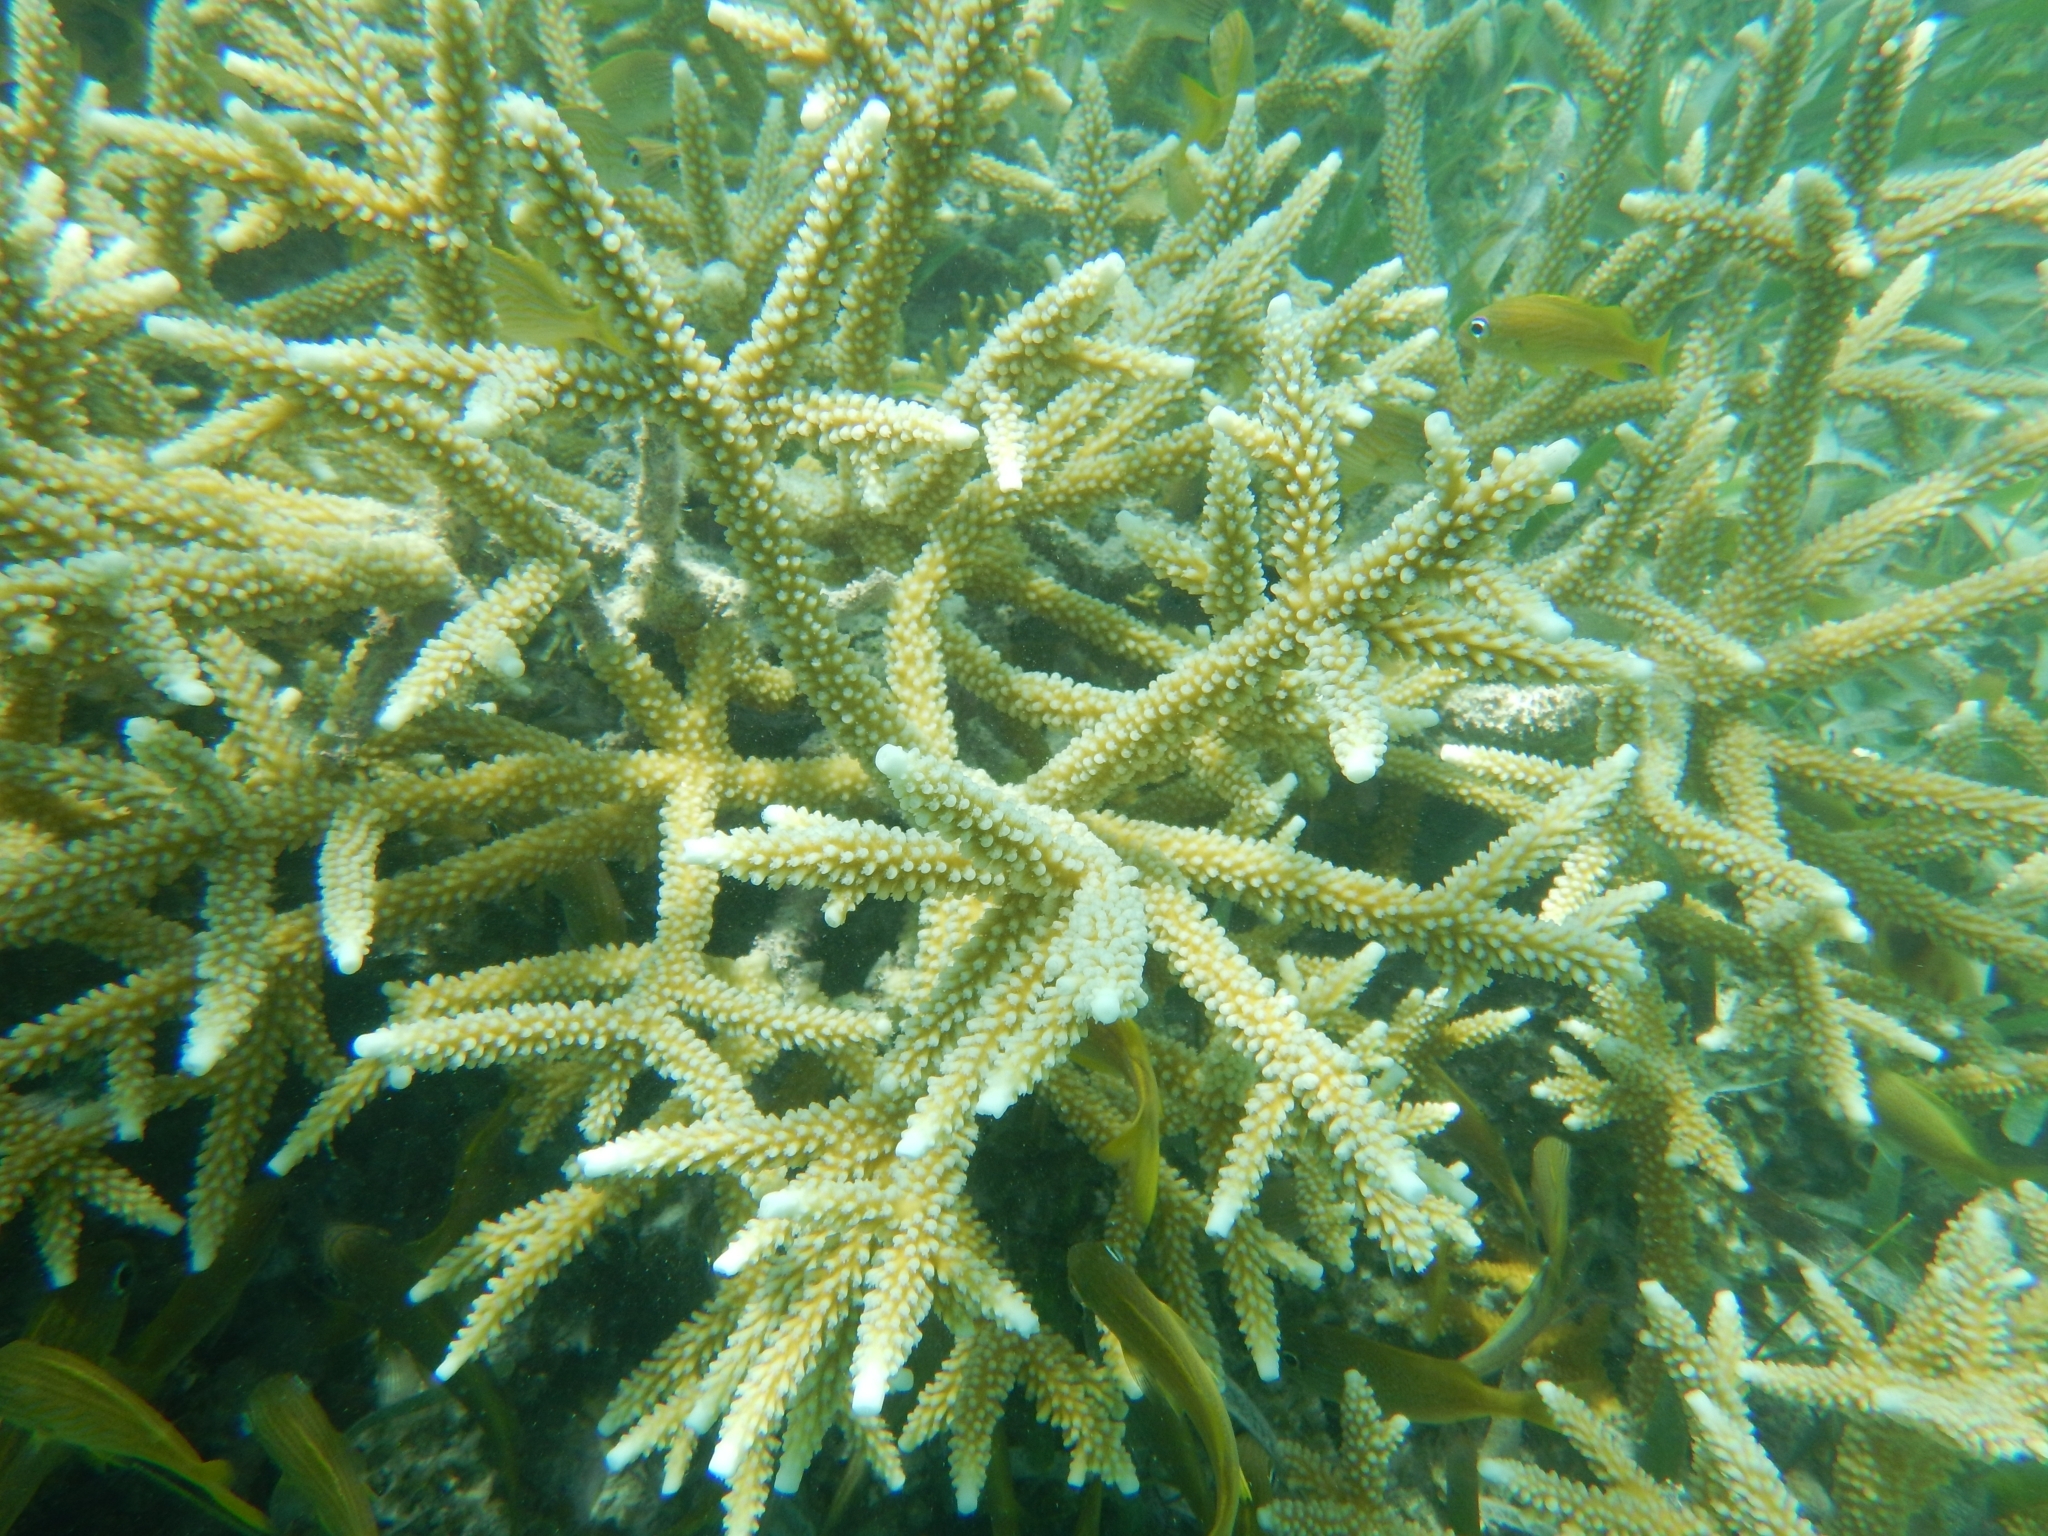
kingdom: Animalia
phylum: Cnidaria
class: Anthozoa
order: Scleractinia
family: Acroporidae
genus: Acropora
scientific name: Acropora cervicornis
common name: Staghorn coral
